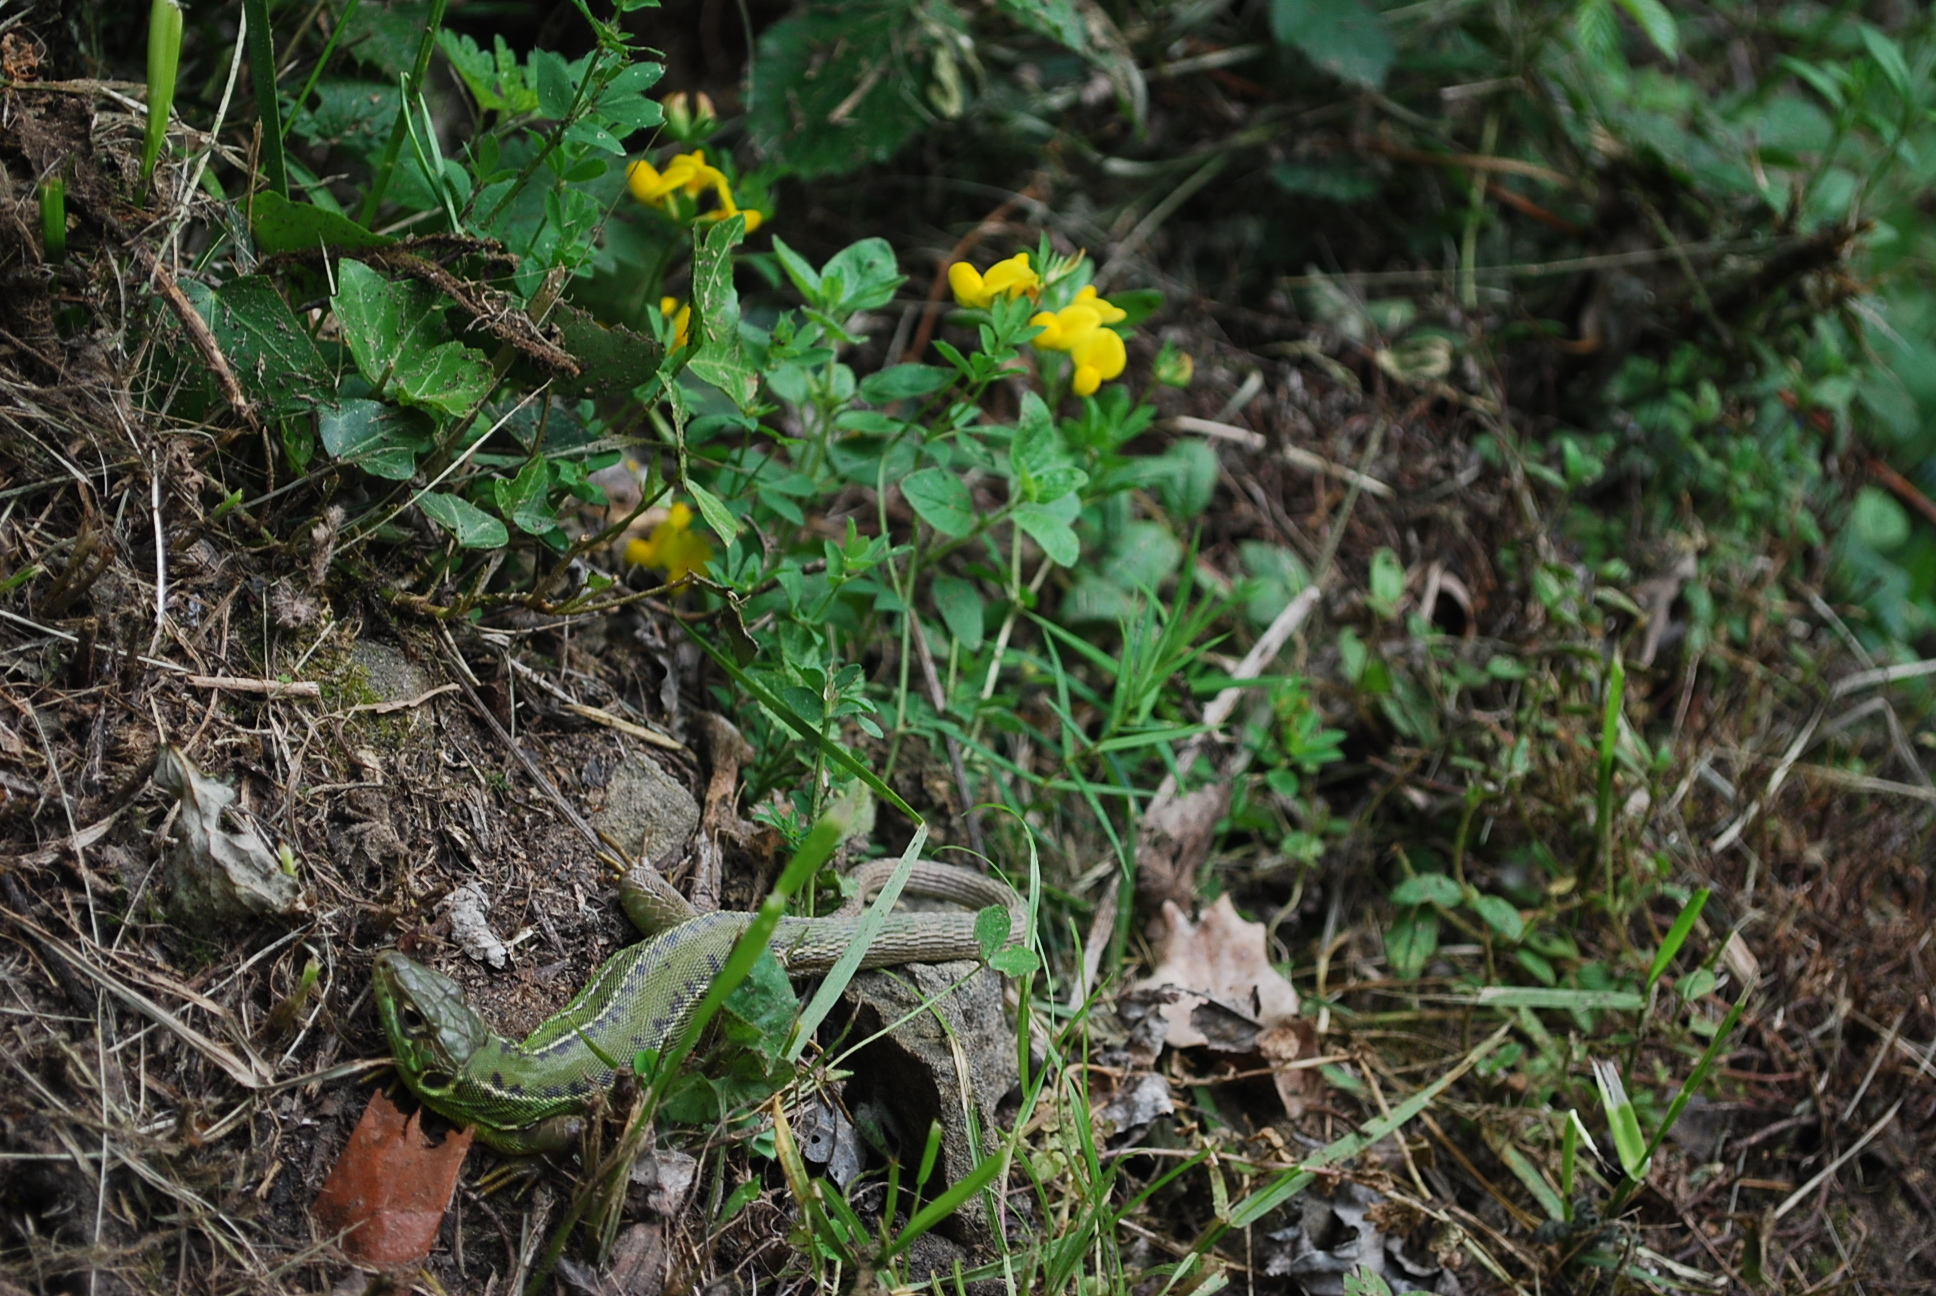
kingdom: Animalia
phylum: Chordata
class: Squamata
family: Lacertidae
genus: Lacerta
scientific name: Lacerta bilineata
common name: Western green lizard
